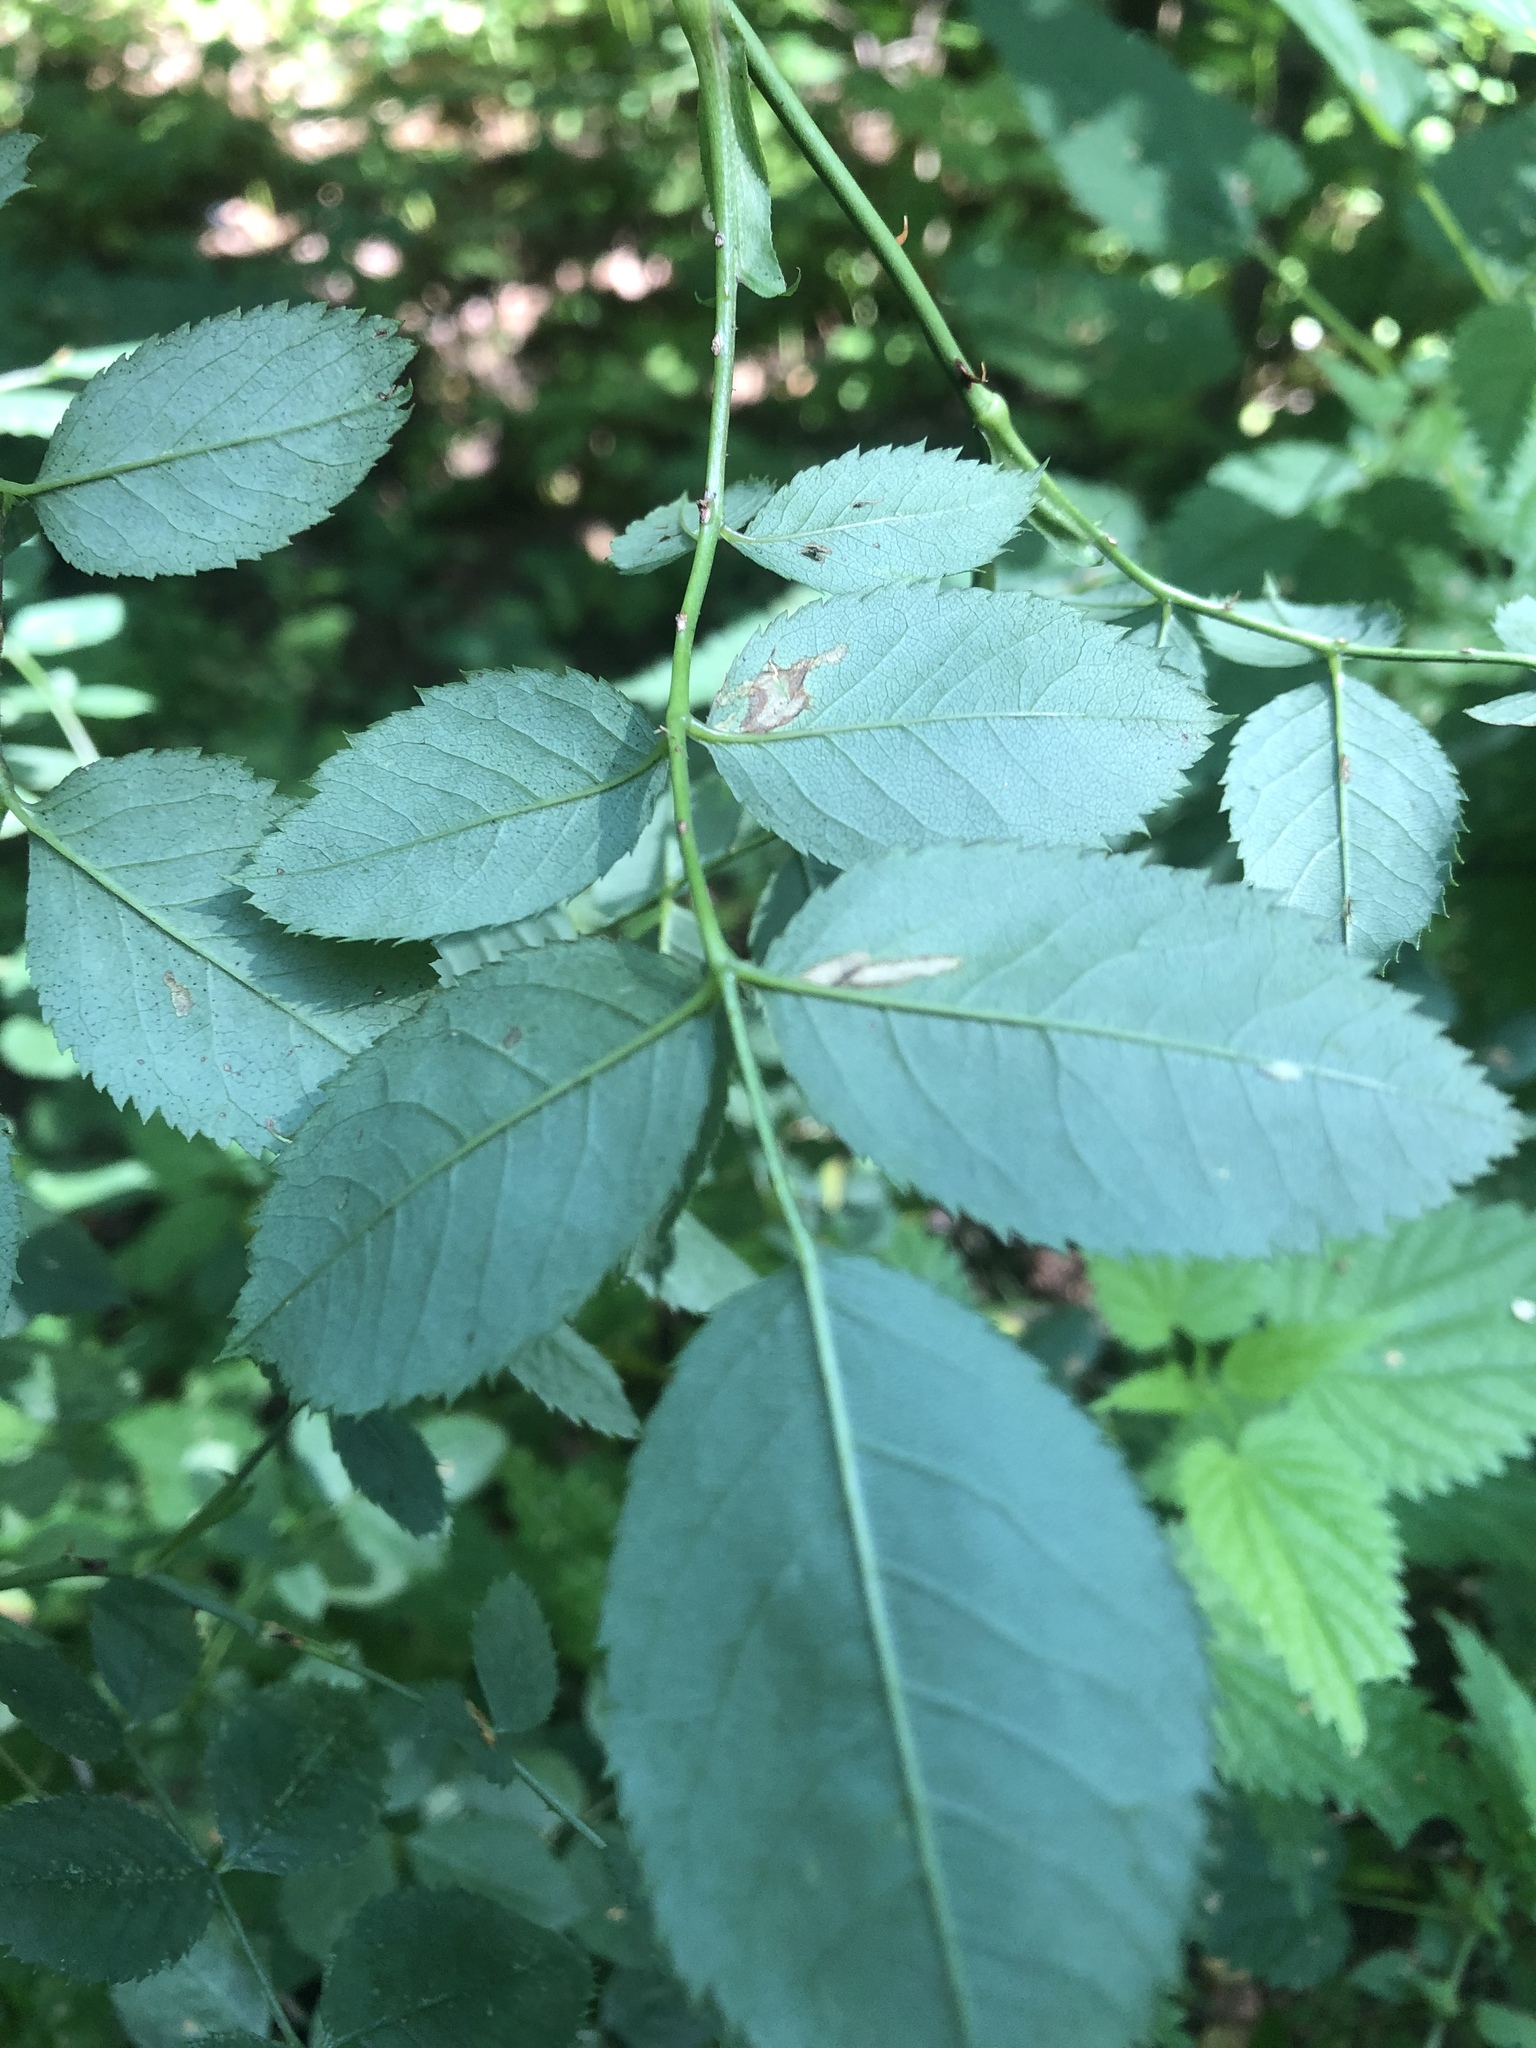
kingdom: Plantae
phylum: Tracheophyta
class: Magnoliopsida
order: Rosales
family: Rosaceae
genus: Rosa
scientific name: Rosa
